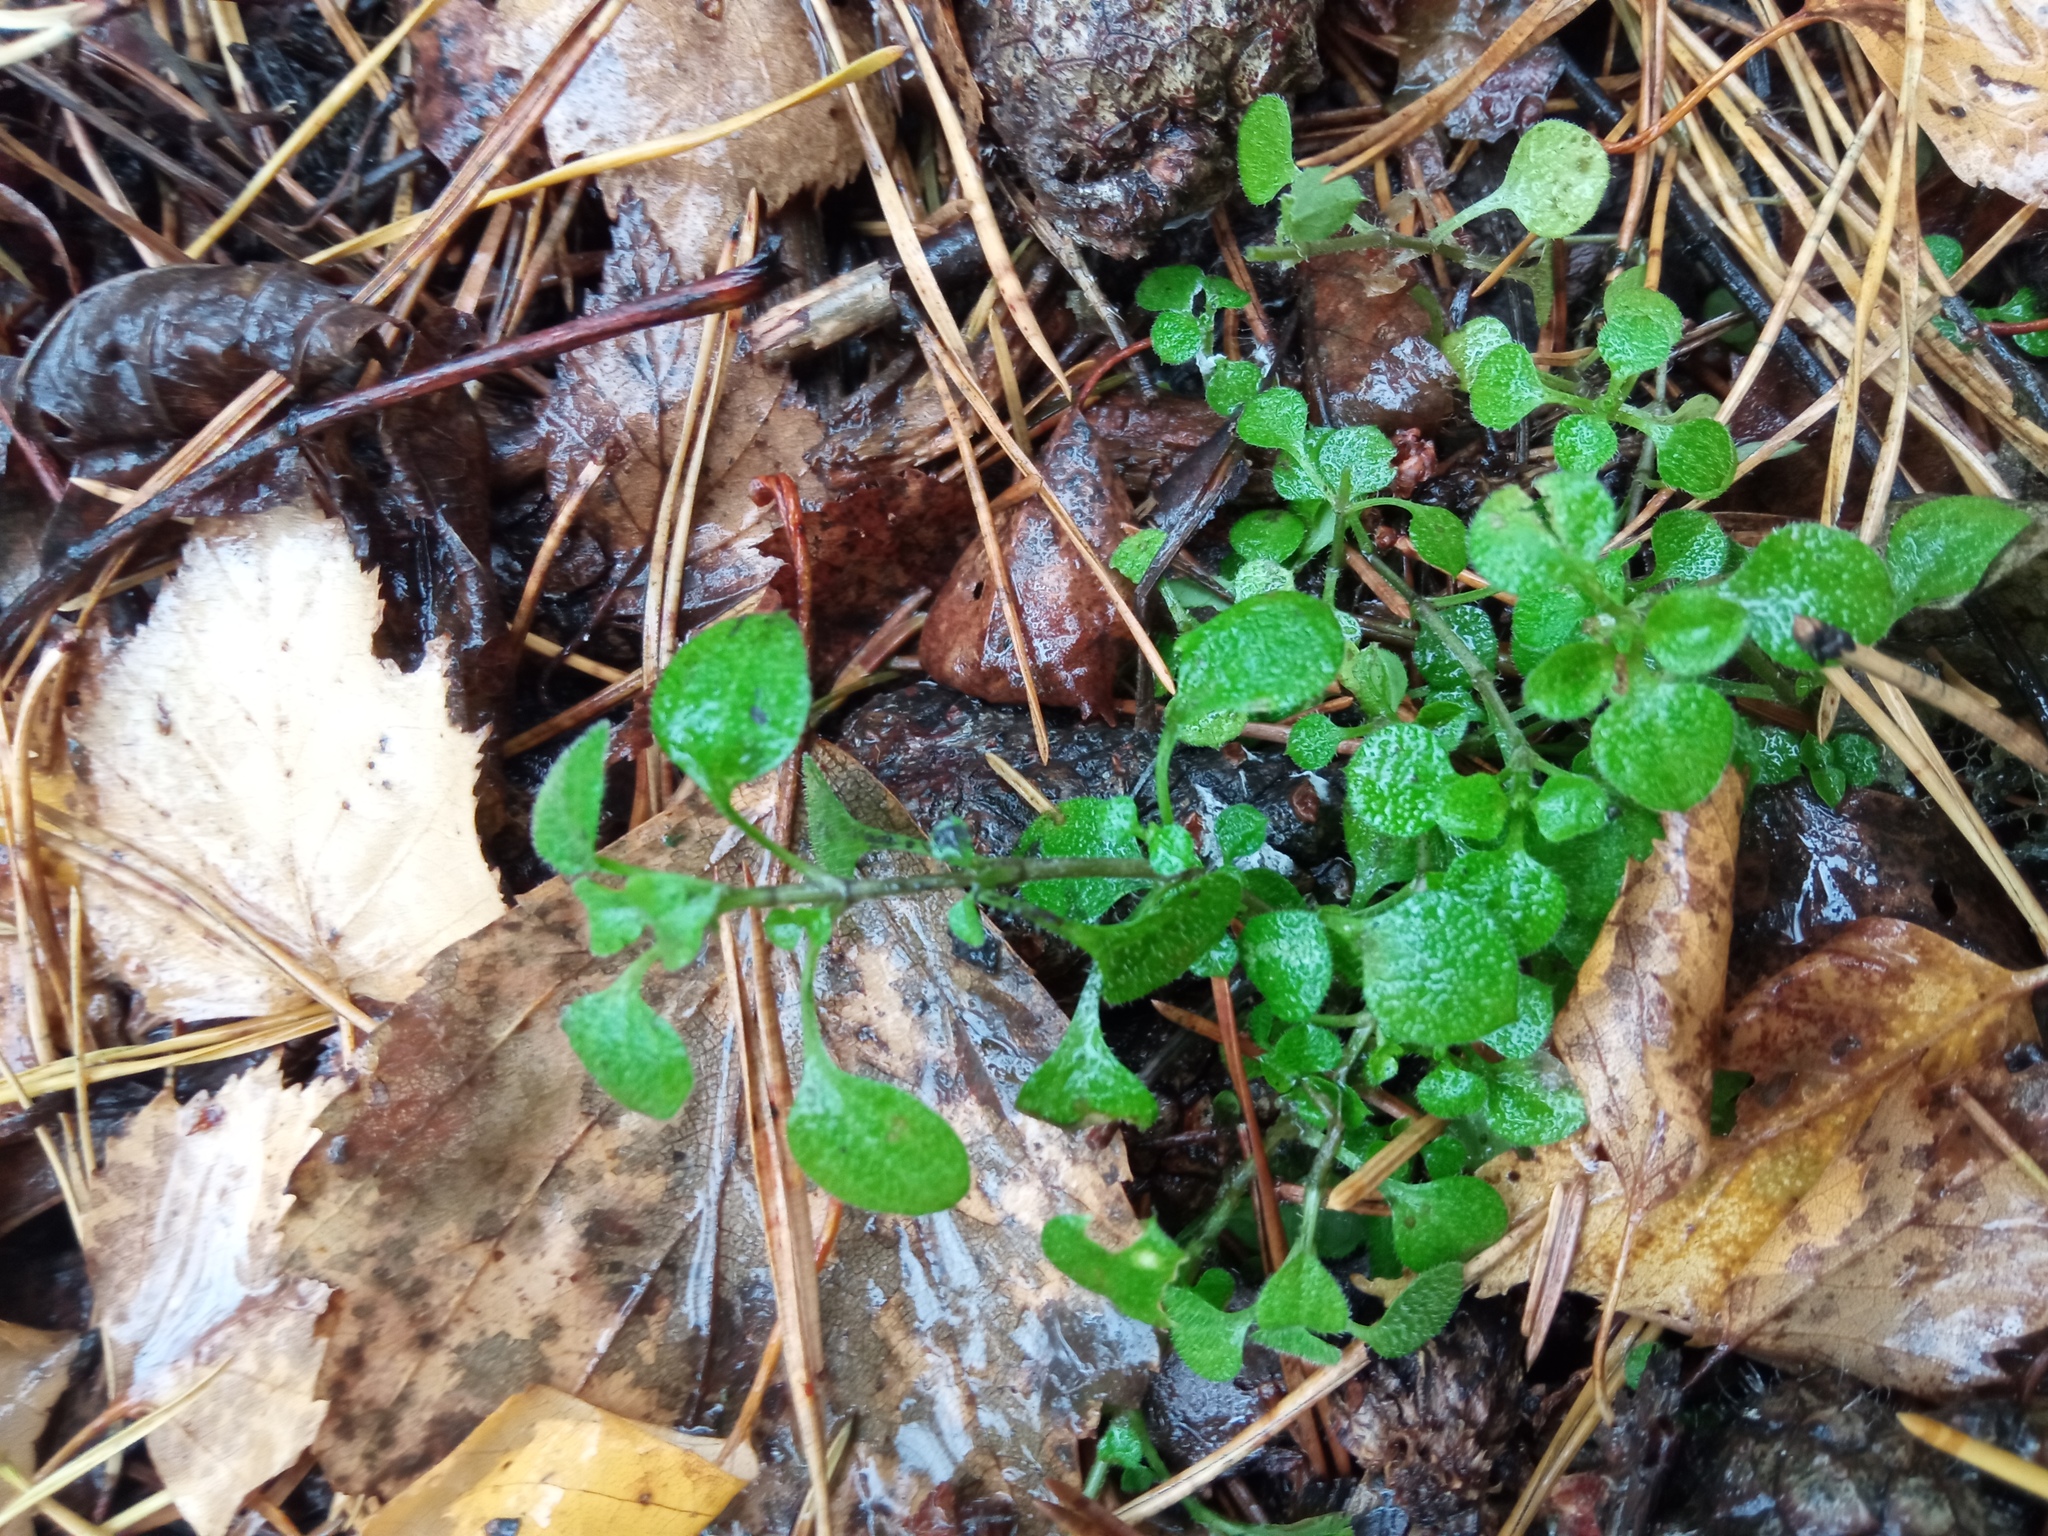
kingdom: Plantae
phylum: Tracheophyta
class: Magnoliopsida
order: Caryophyllales
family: Caryophyllaceae
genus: Moehringia
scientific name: Moehringia trinervia
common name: Three-nerved sandwort
